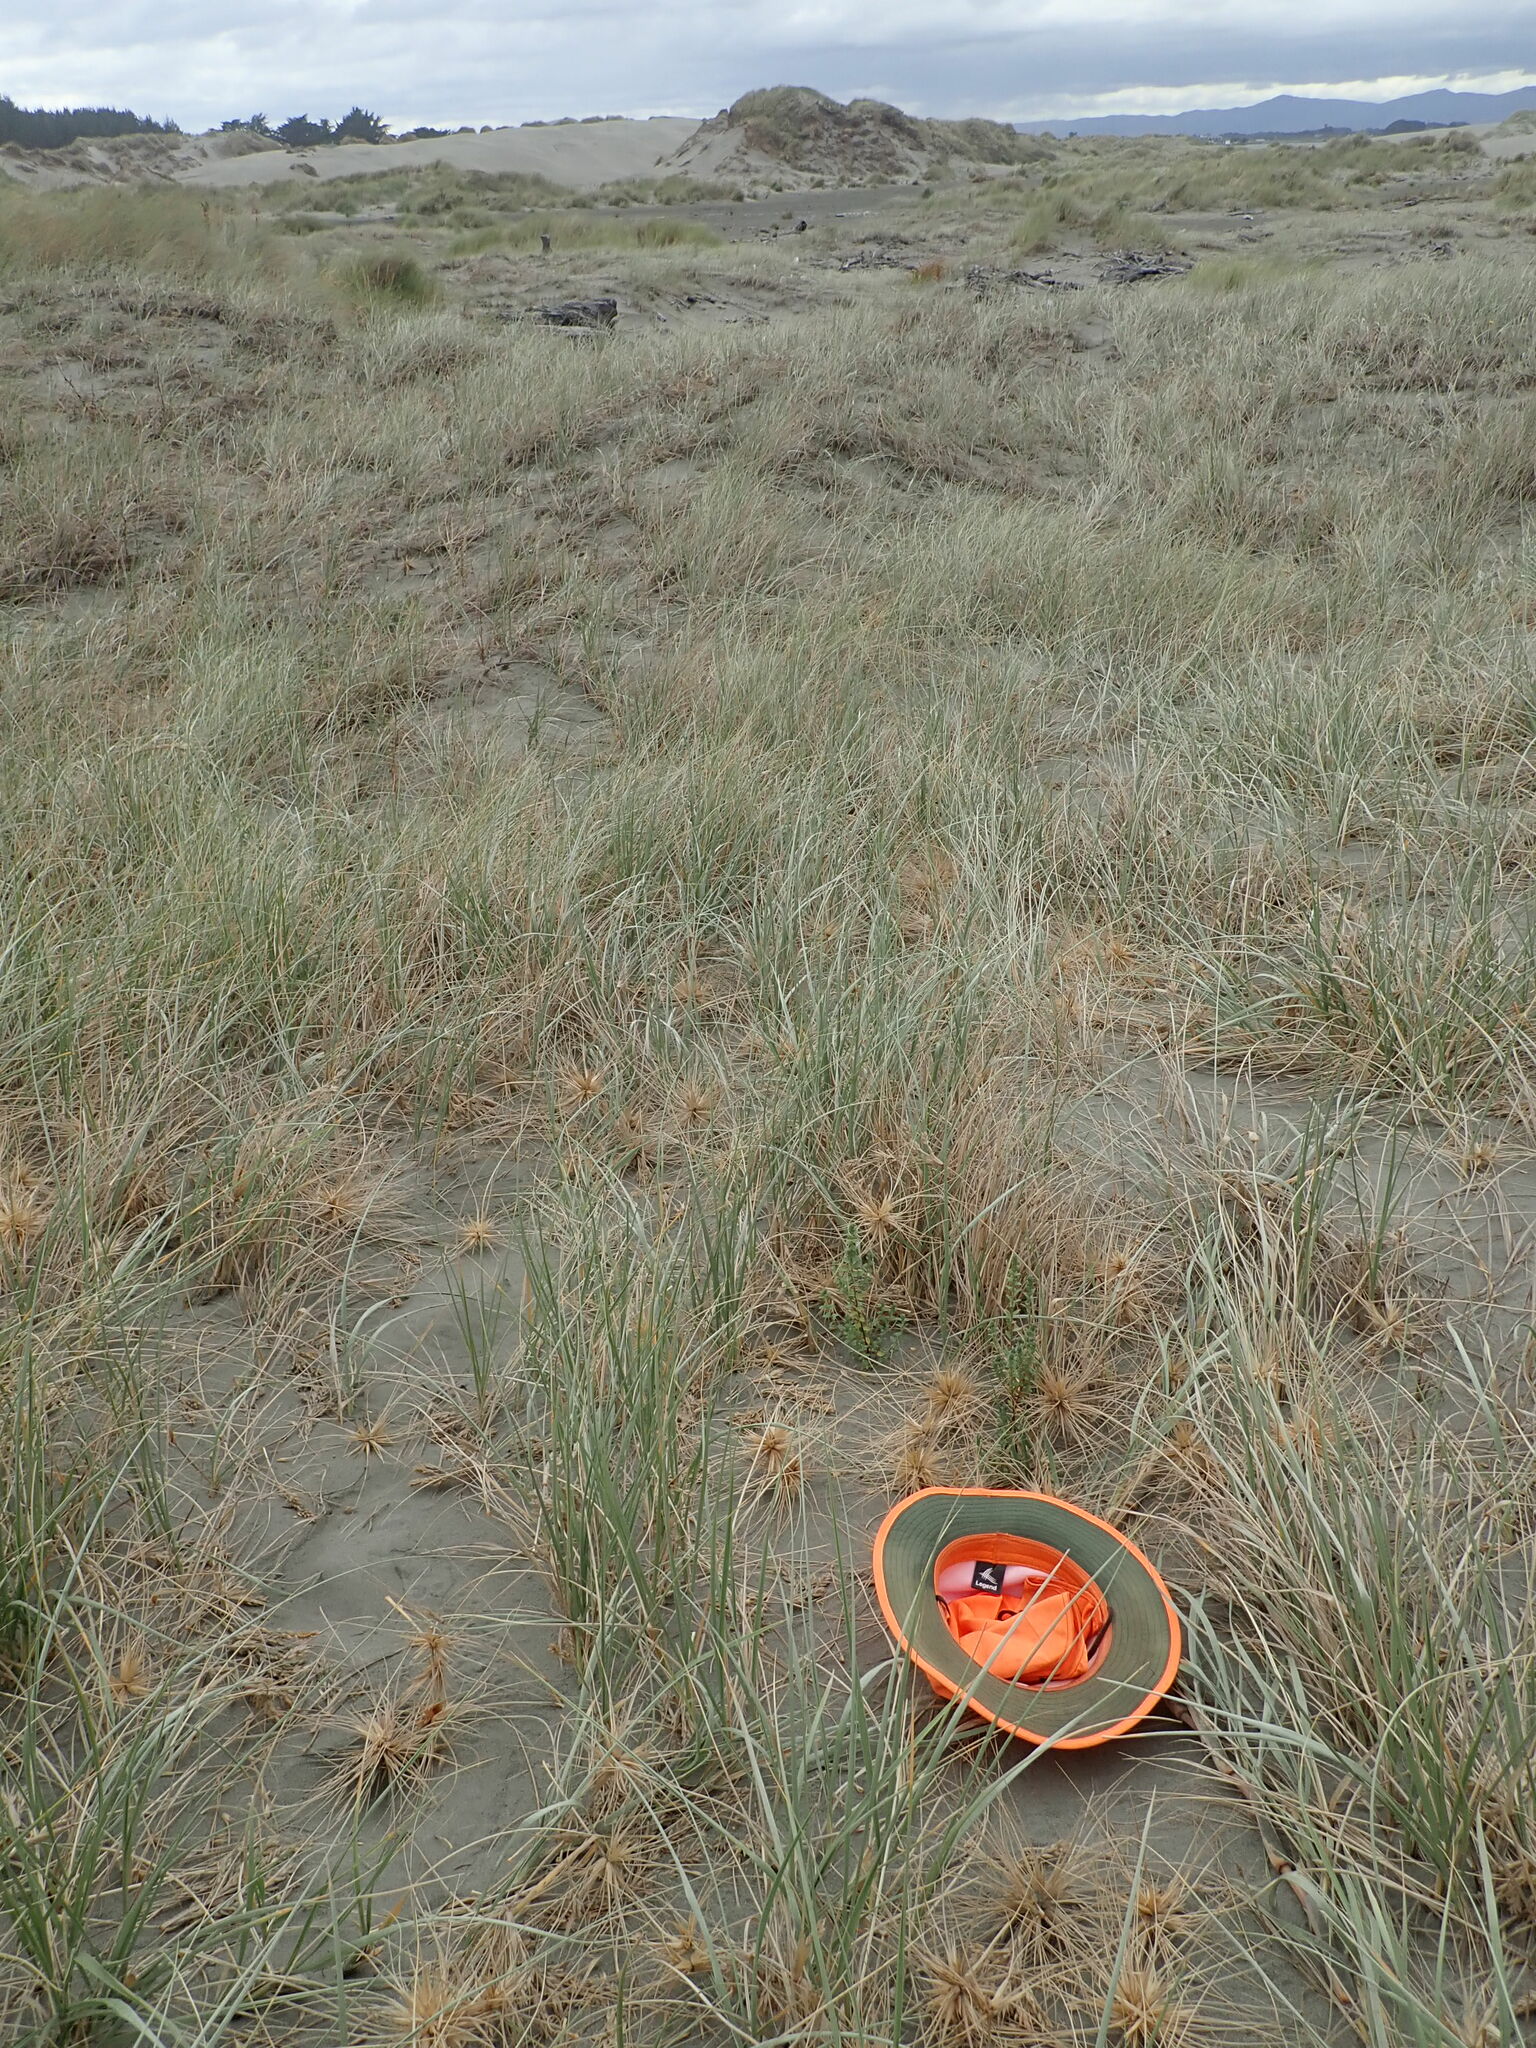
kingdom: Plantae
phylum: Tracheophyta
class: Magnoliopsida
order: Malvales
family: Thymelaeaceae
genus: Pimelea
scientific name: Pimelea villosa
